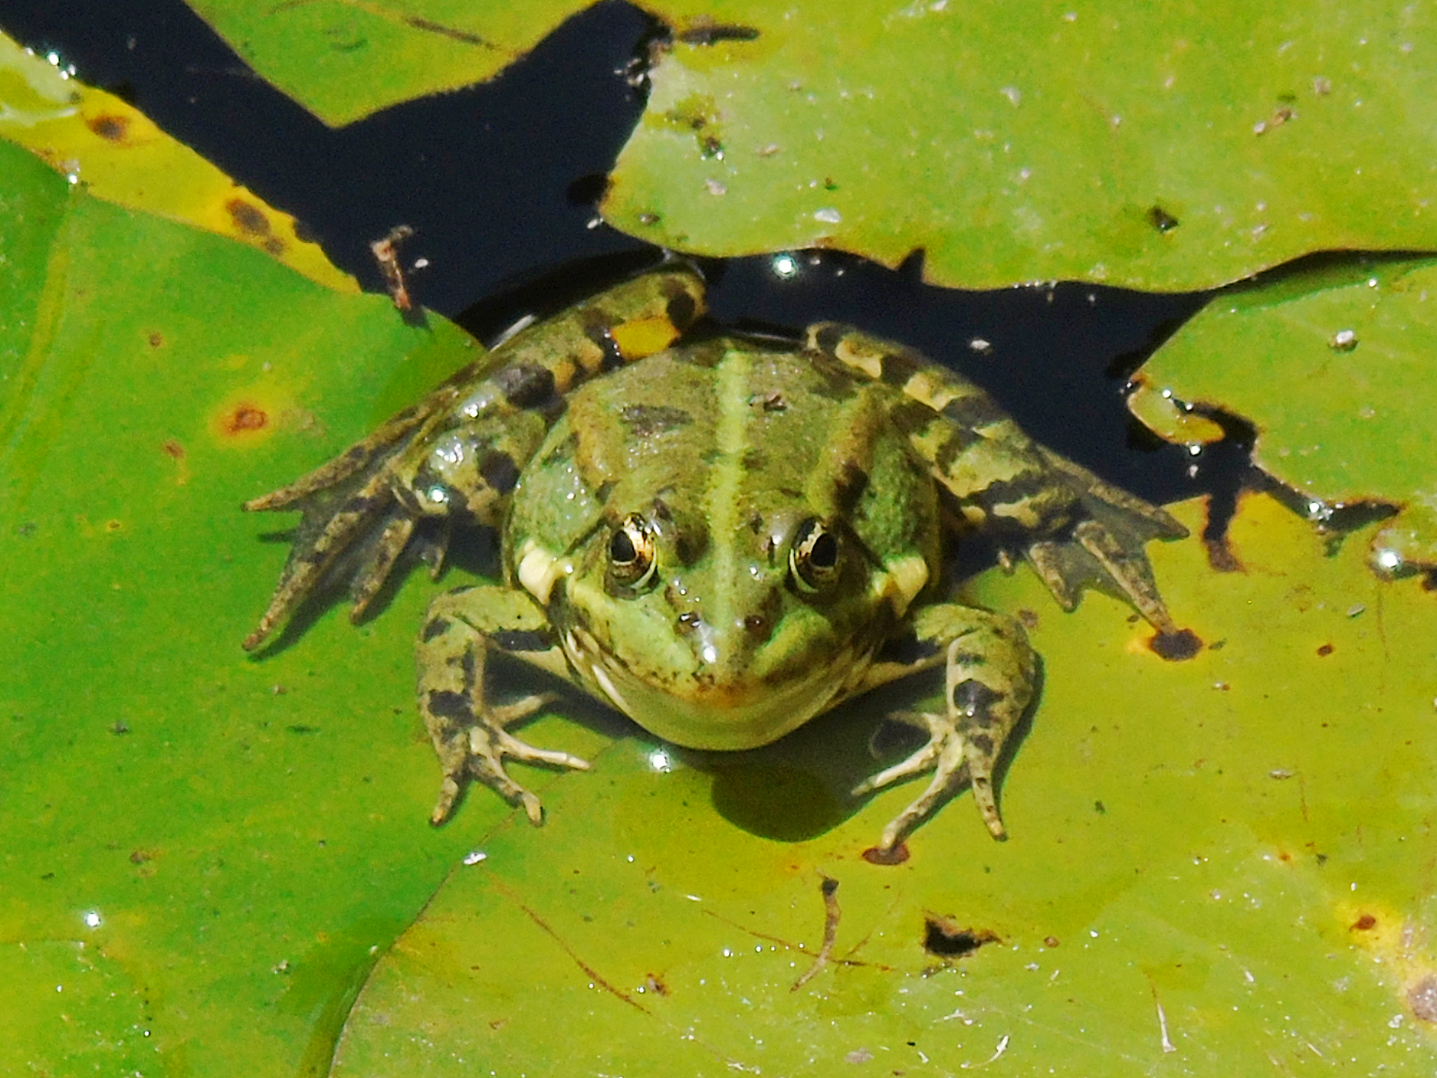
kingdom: Animalia
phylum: Chordata
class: Amphibia
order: Anura
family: Ranidae
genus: Pelophylax
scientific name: Pelophylax ridibundus
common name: Marsh frog
